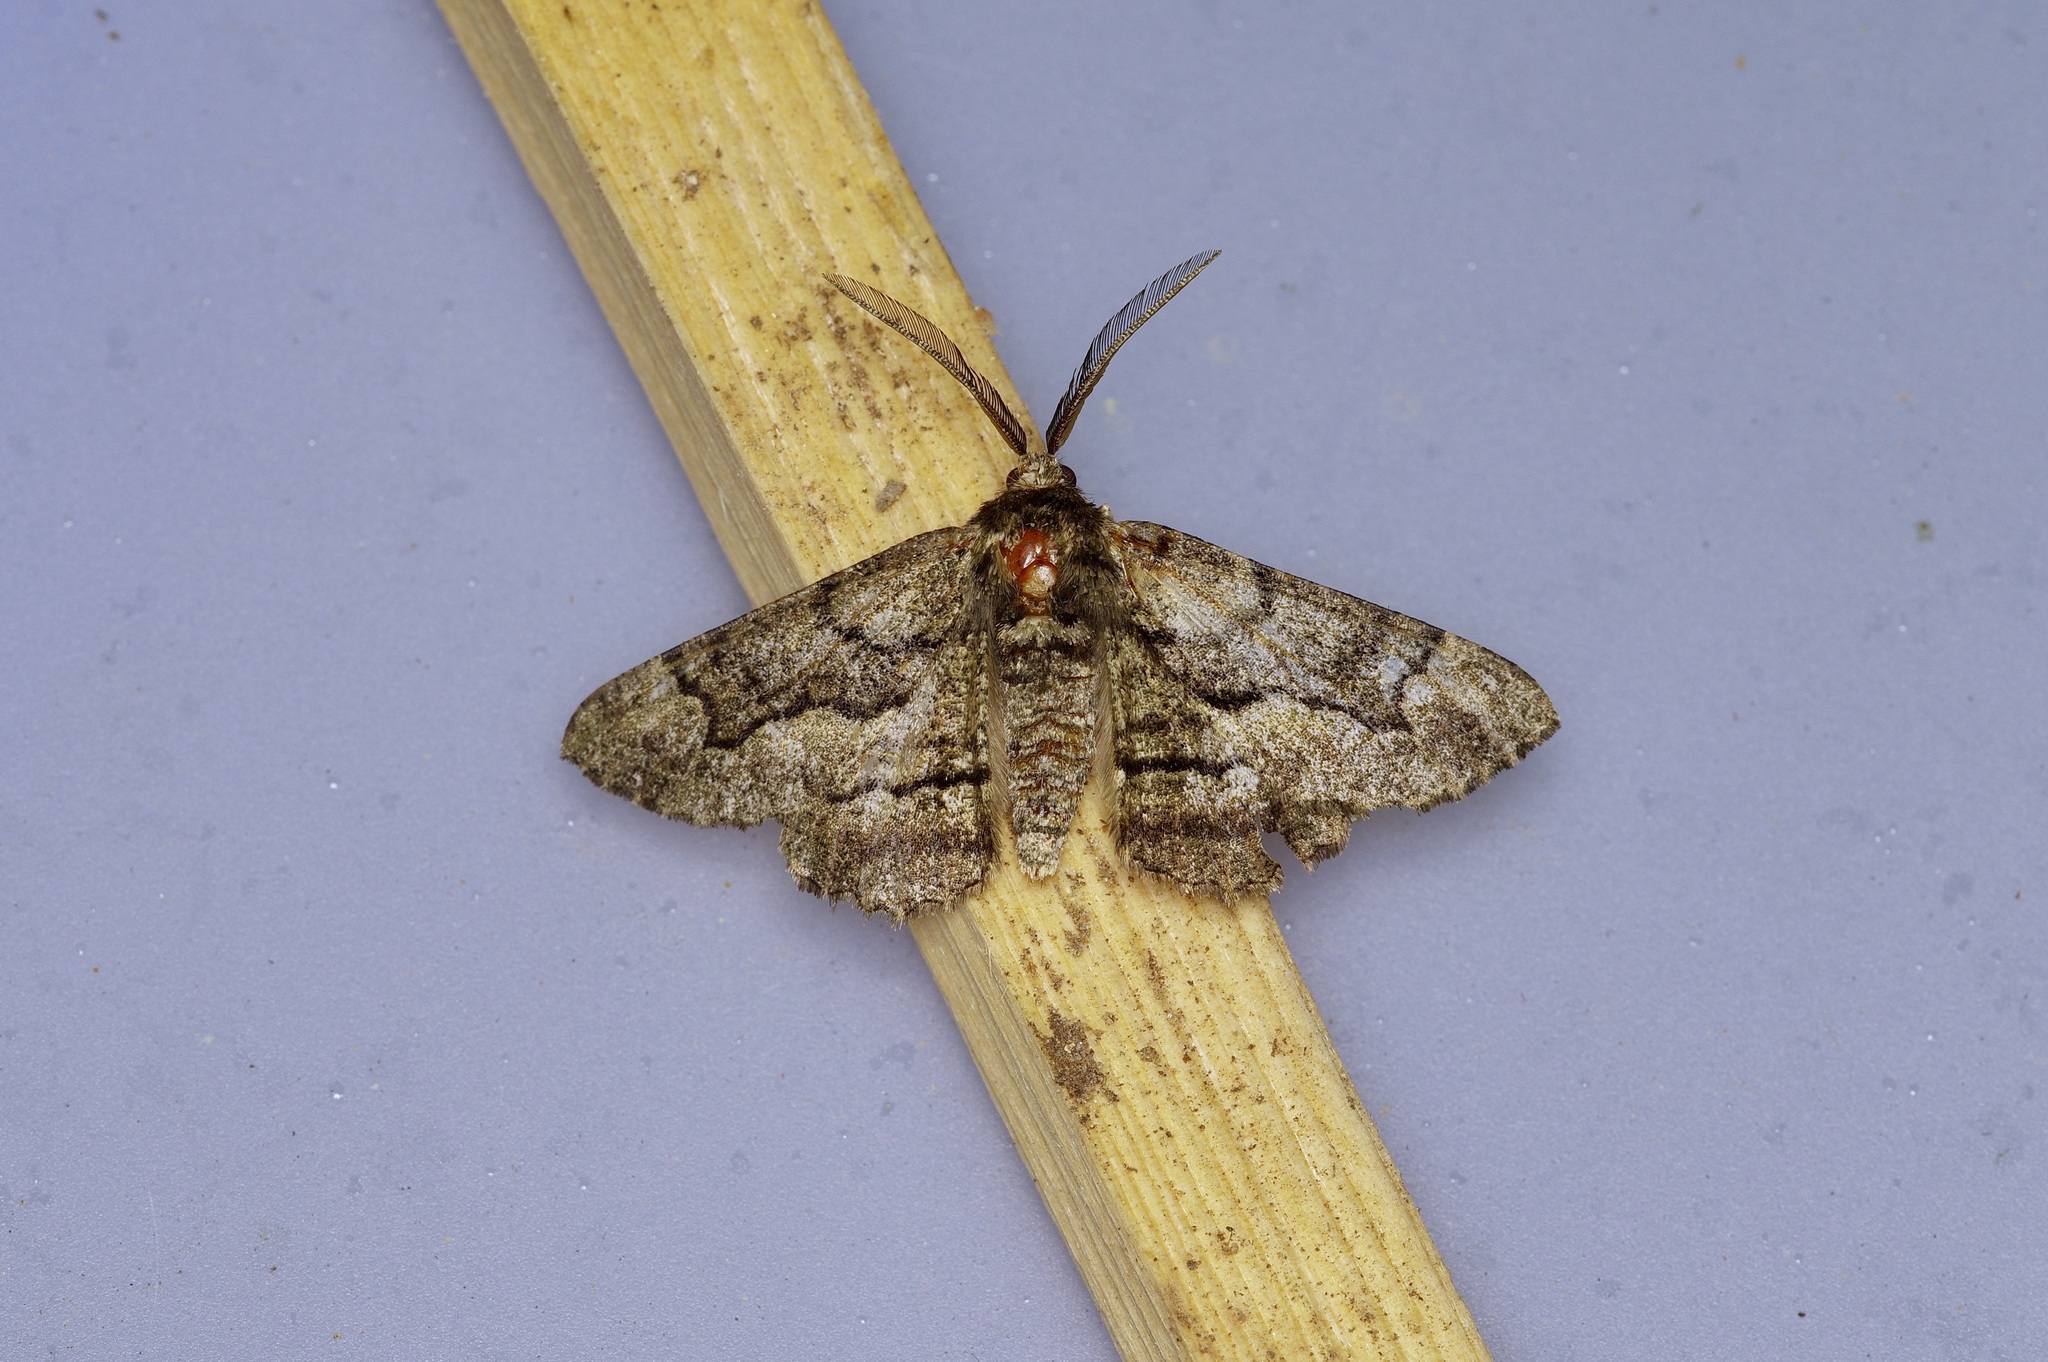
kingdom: Animalia
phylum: Arthropoda
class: Insecta
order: Lepidoptera
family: Geometridae
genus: Phaeoura
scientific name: Phaeoura quernaria
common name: Oak beauty
